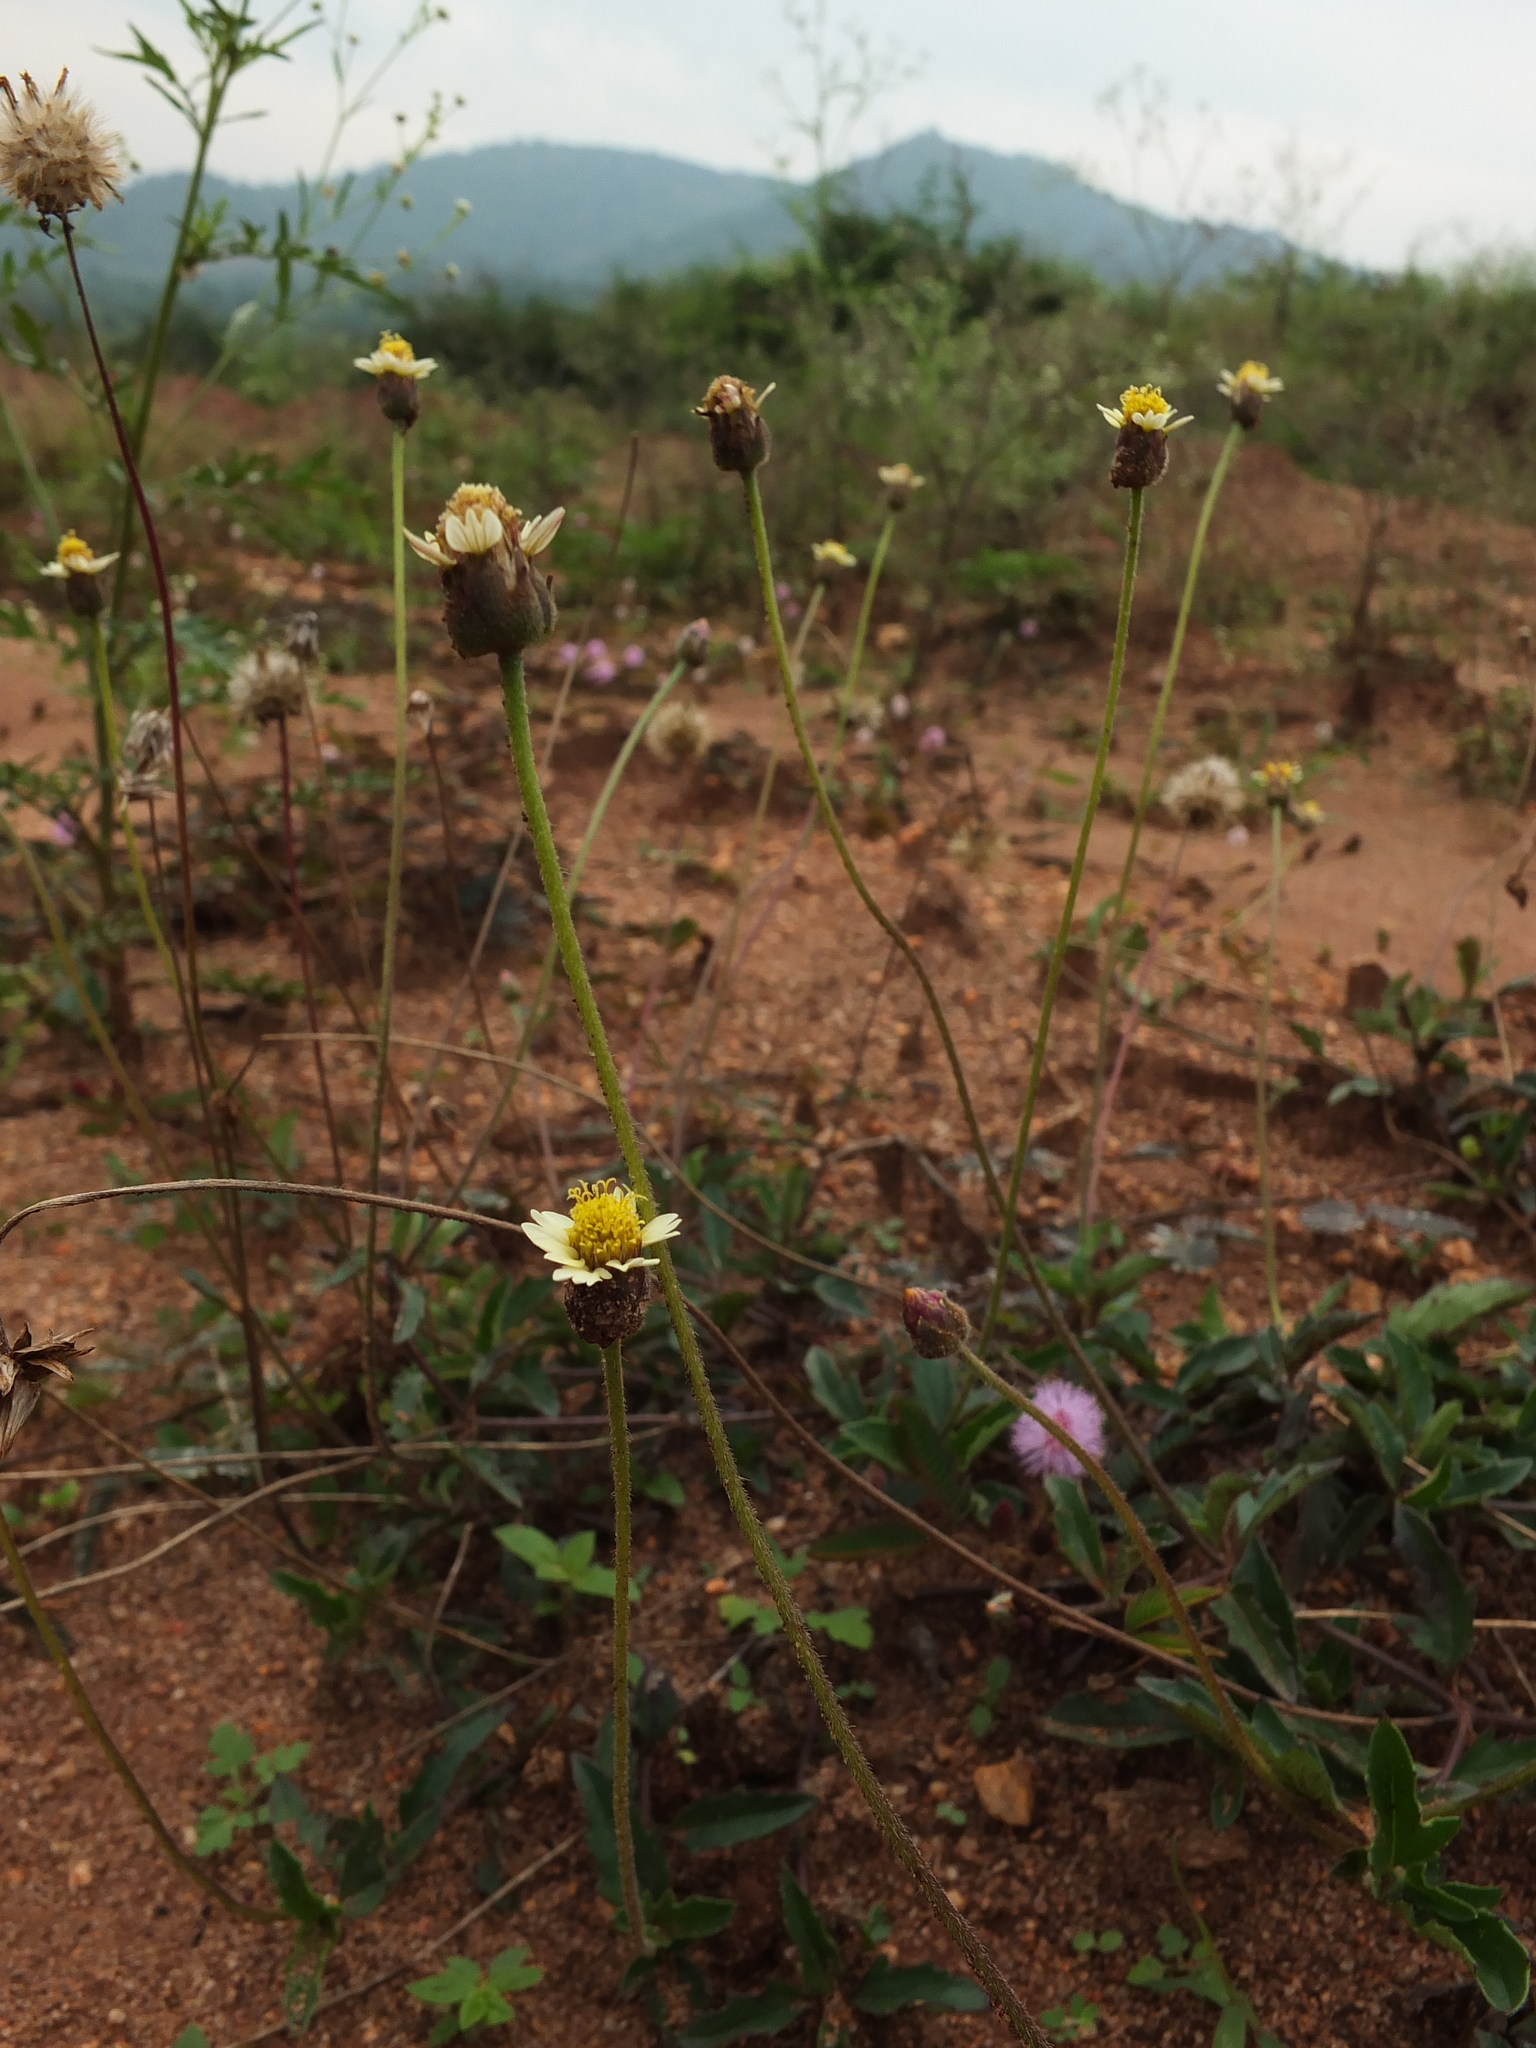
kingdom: Plantae
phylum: Tracheophyta
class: Magnoliopsida
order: Asterales
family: Asteraceae
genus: Tridax
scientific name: Tridax procumbens
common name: Coatbuttons
